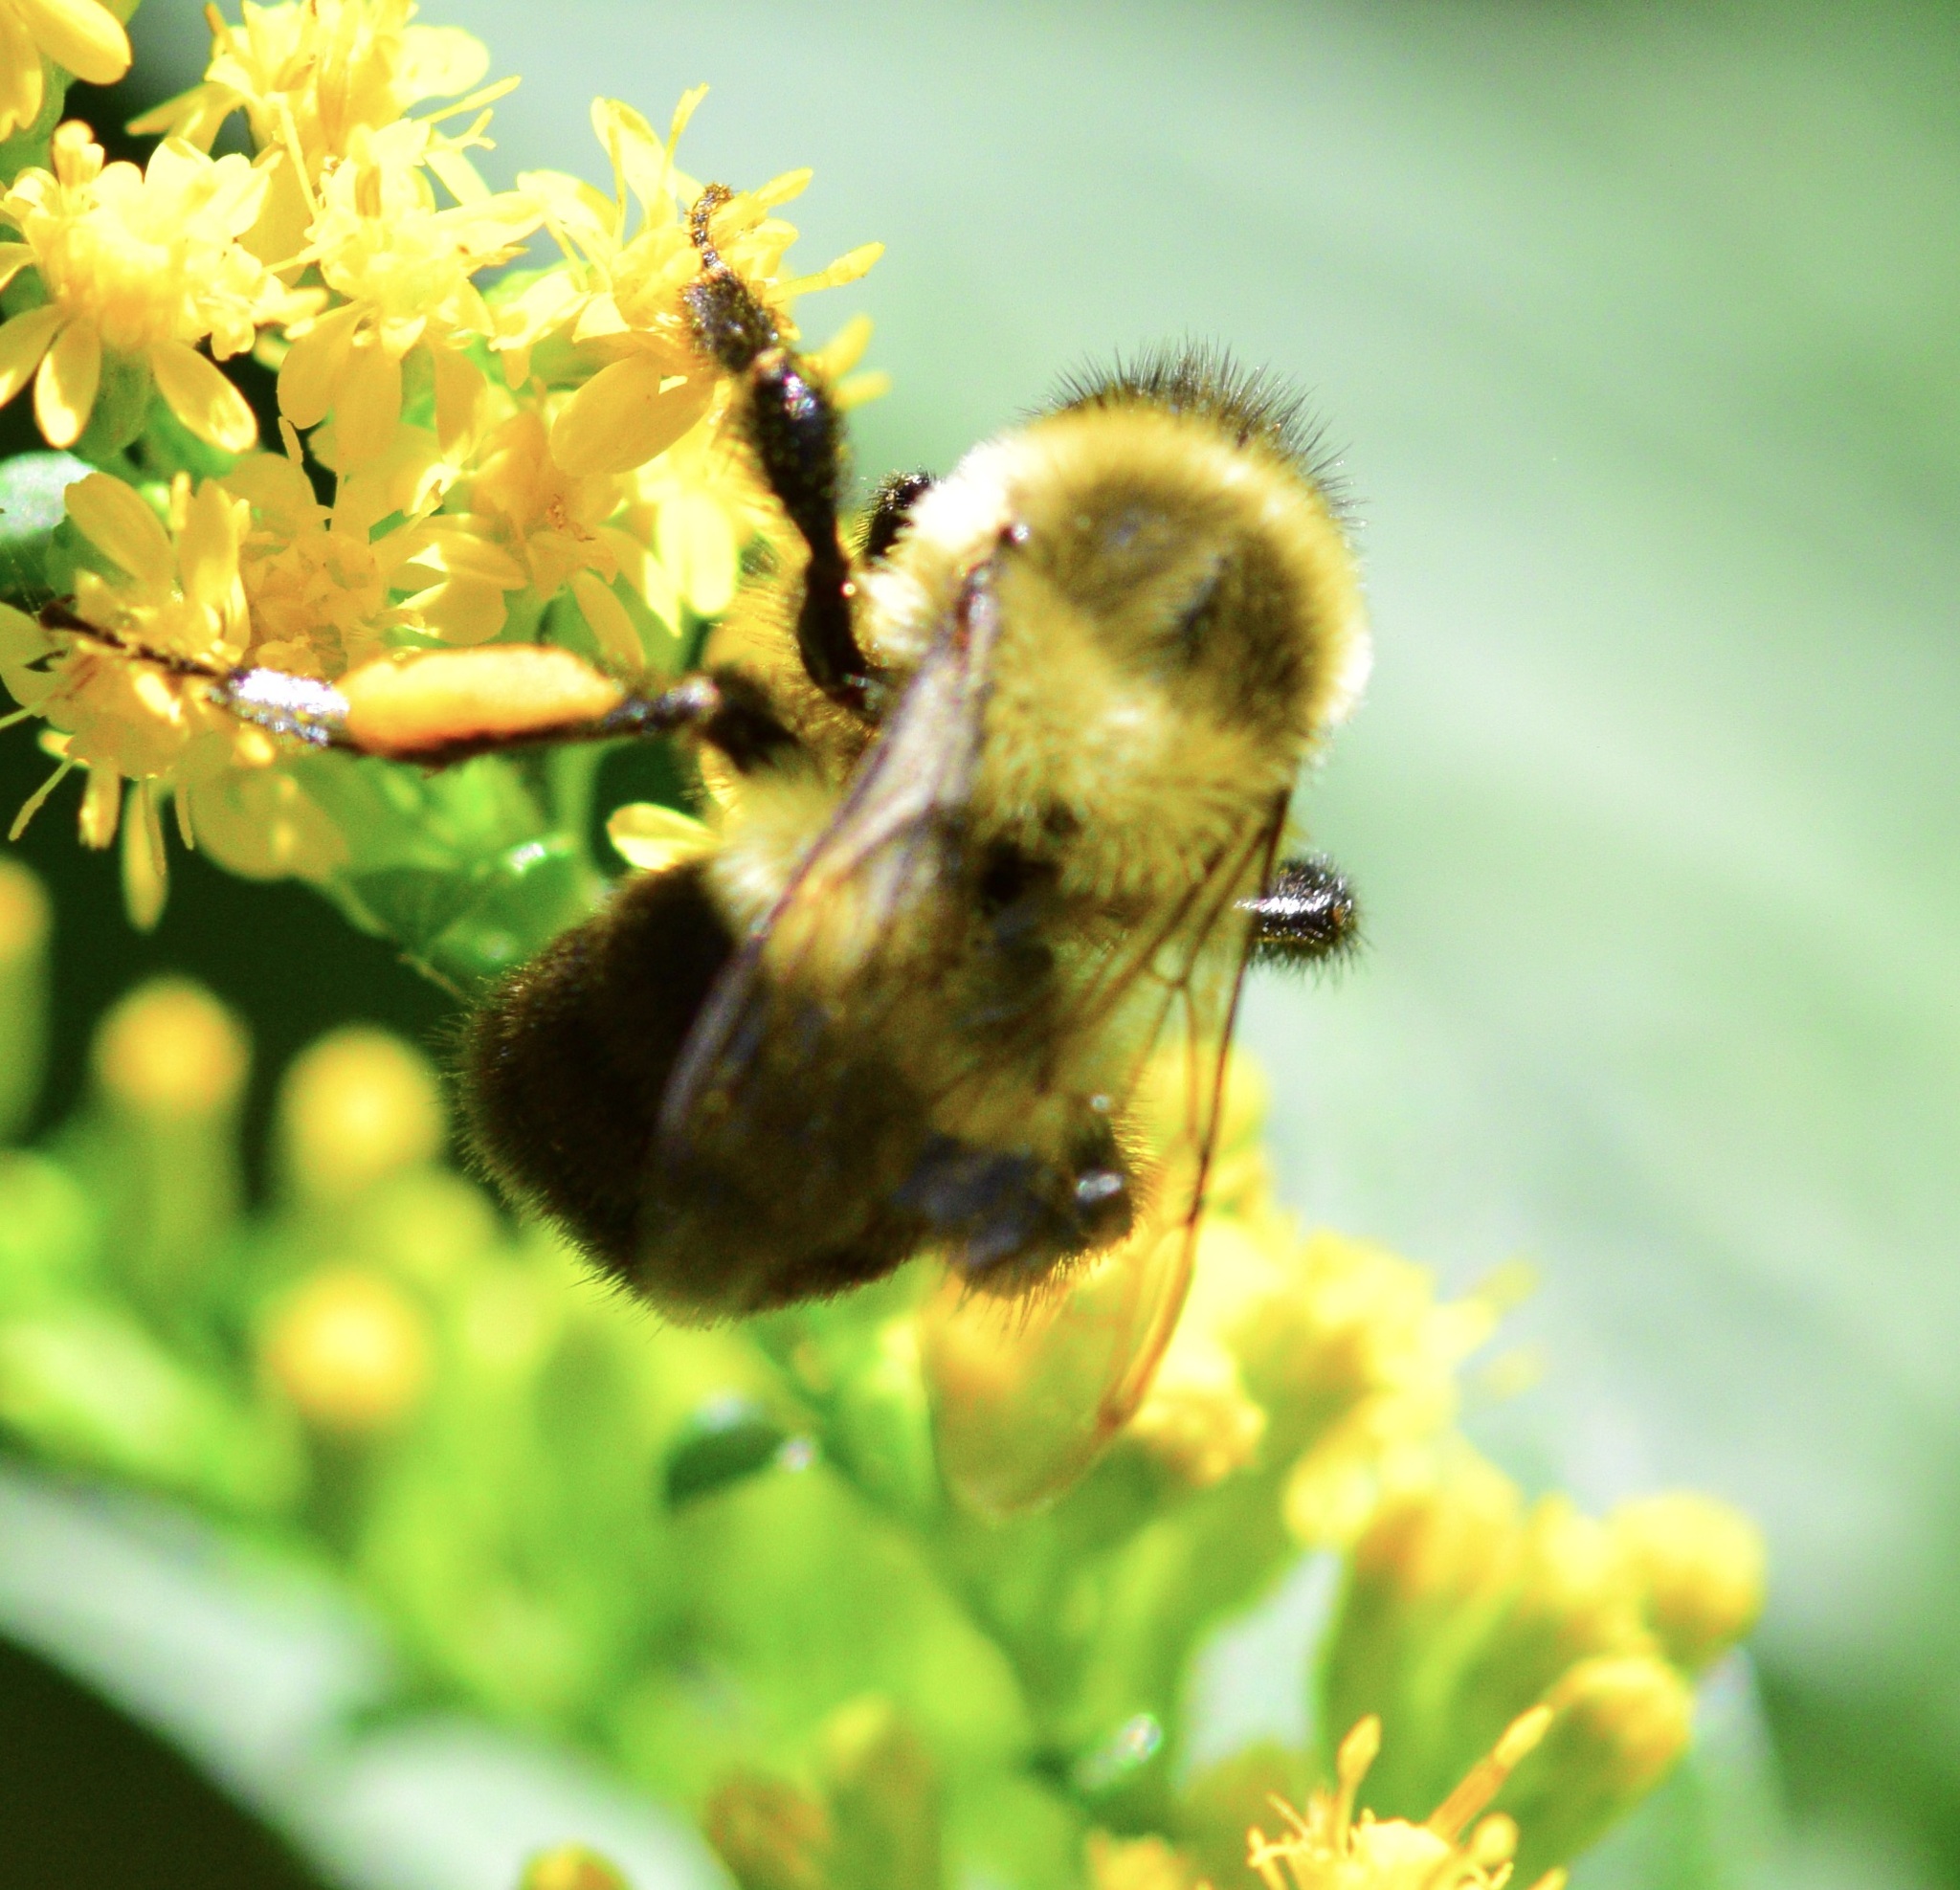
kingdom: Animalia
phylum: Arthropoda
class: Insecta
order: Hymenoptera
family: Apidae
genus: Bombus
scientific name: Bombus impatiens
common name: Common eastern bumble bee
